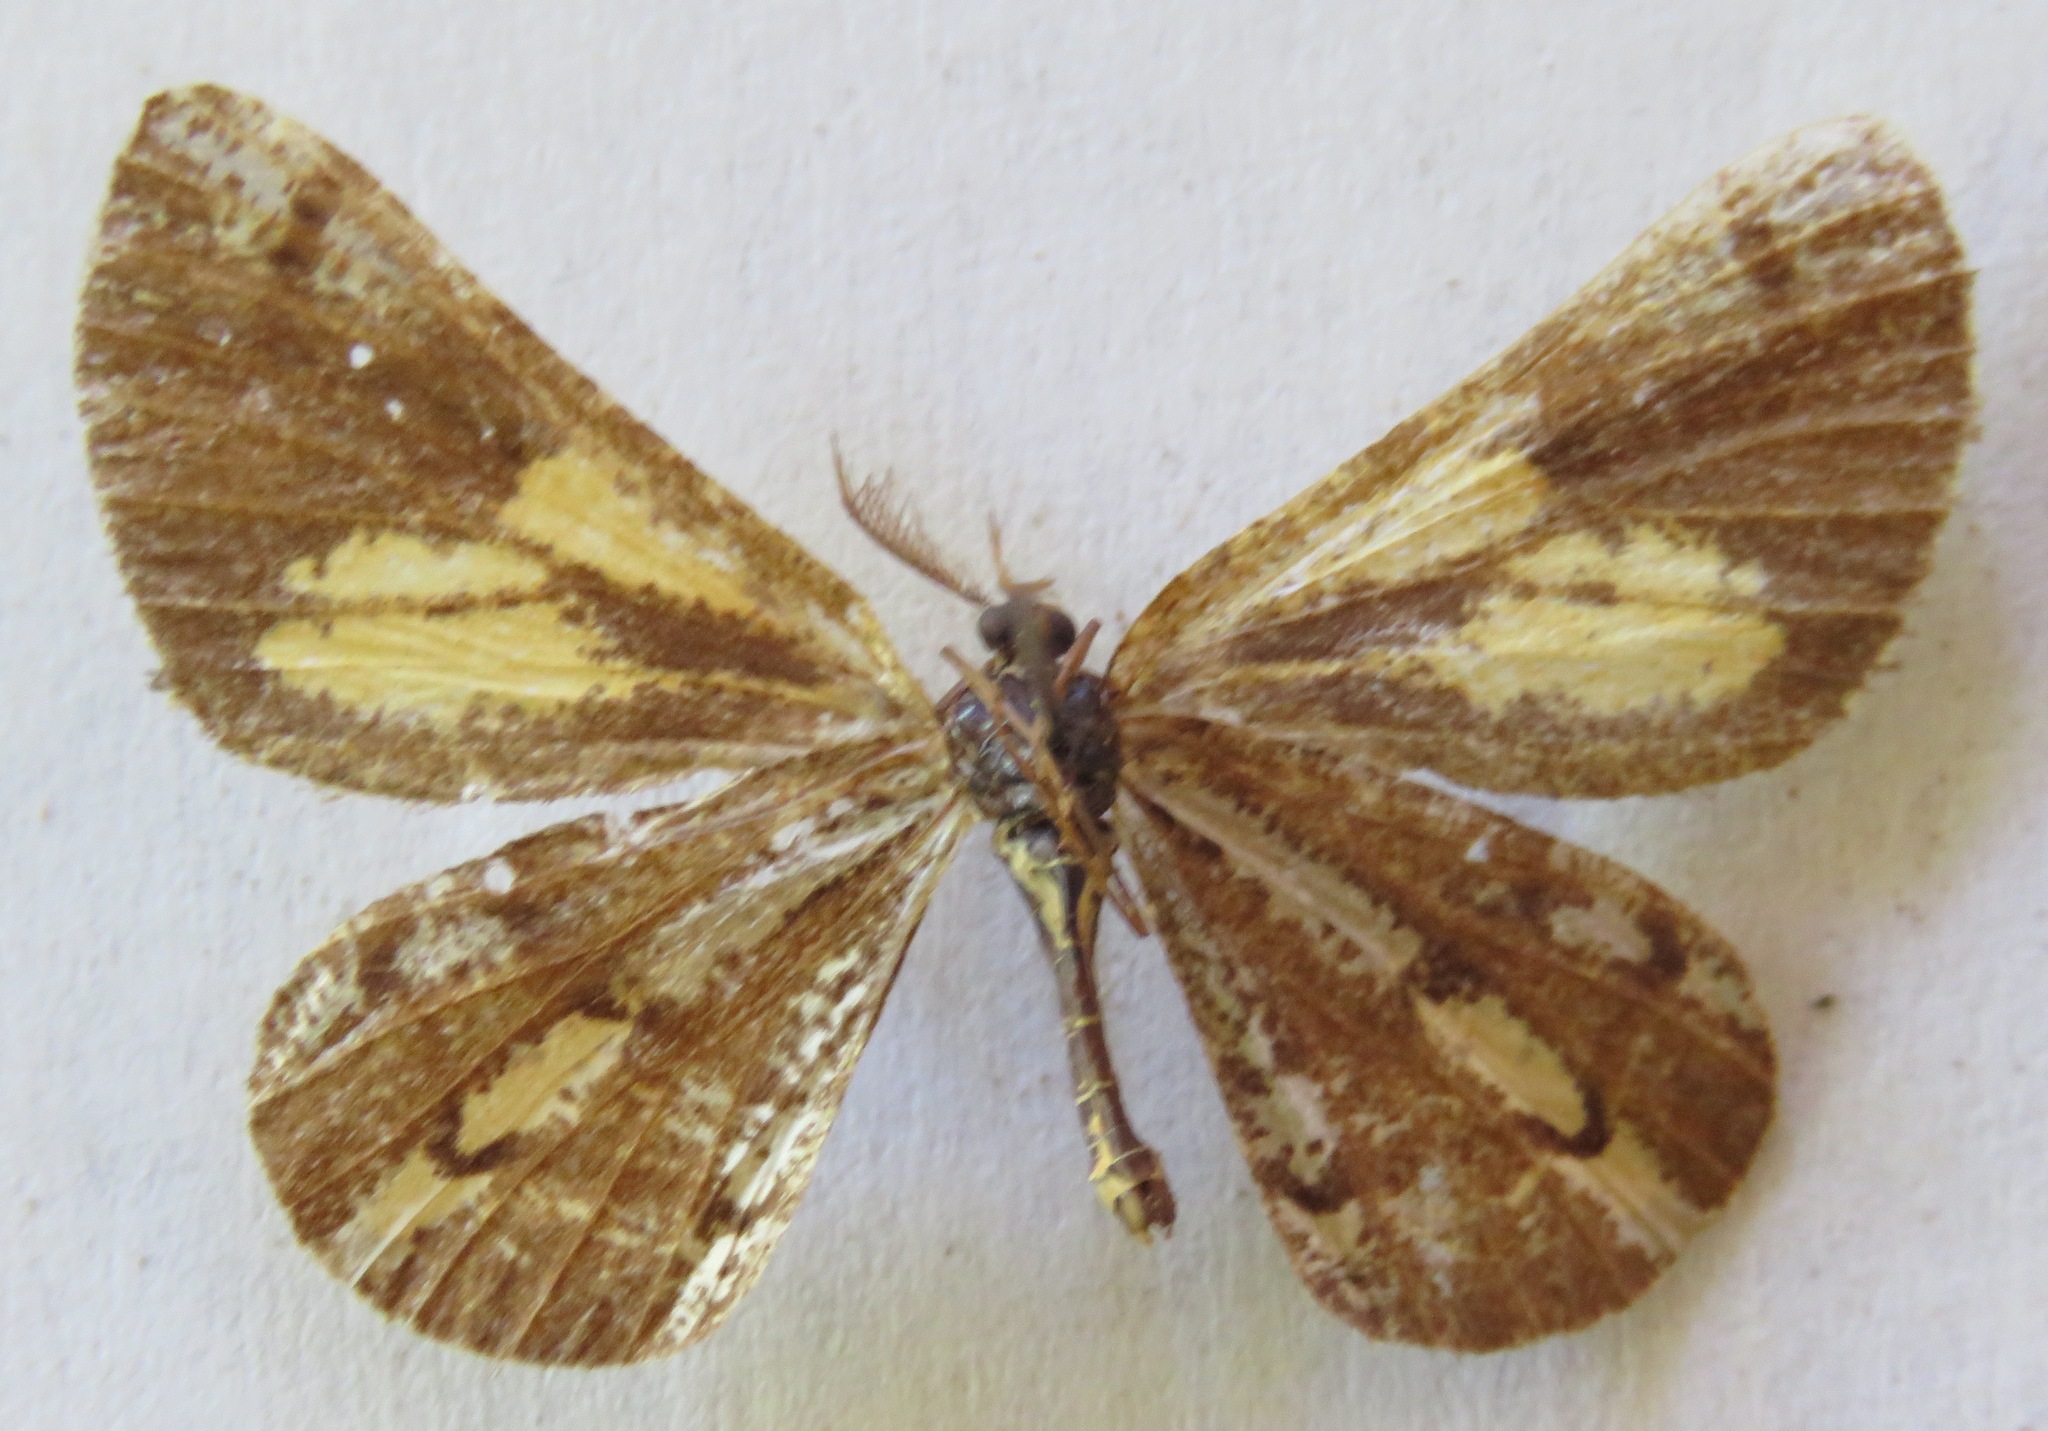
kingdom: Animalia
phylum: Arthropoda
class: Insecta
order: Lepidoptera
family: Geometridae
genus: Bupalus
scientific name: Bupalus piniaria
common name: Bordered white
